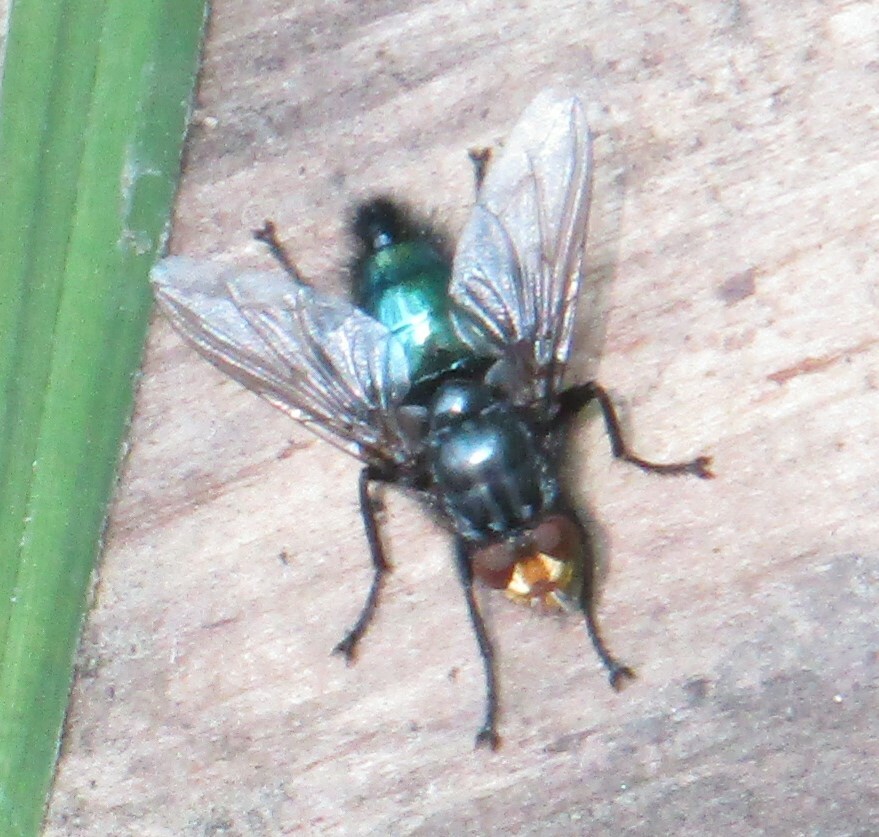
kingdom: Animalia
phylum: Arthropoda
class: Insecta
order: Diptera
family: Calliphoridae
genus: Cynomya
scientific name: Cynomya mortuorum
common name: Bluebottle blow fly
